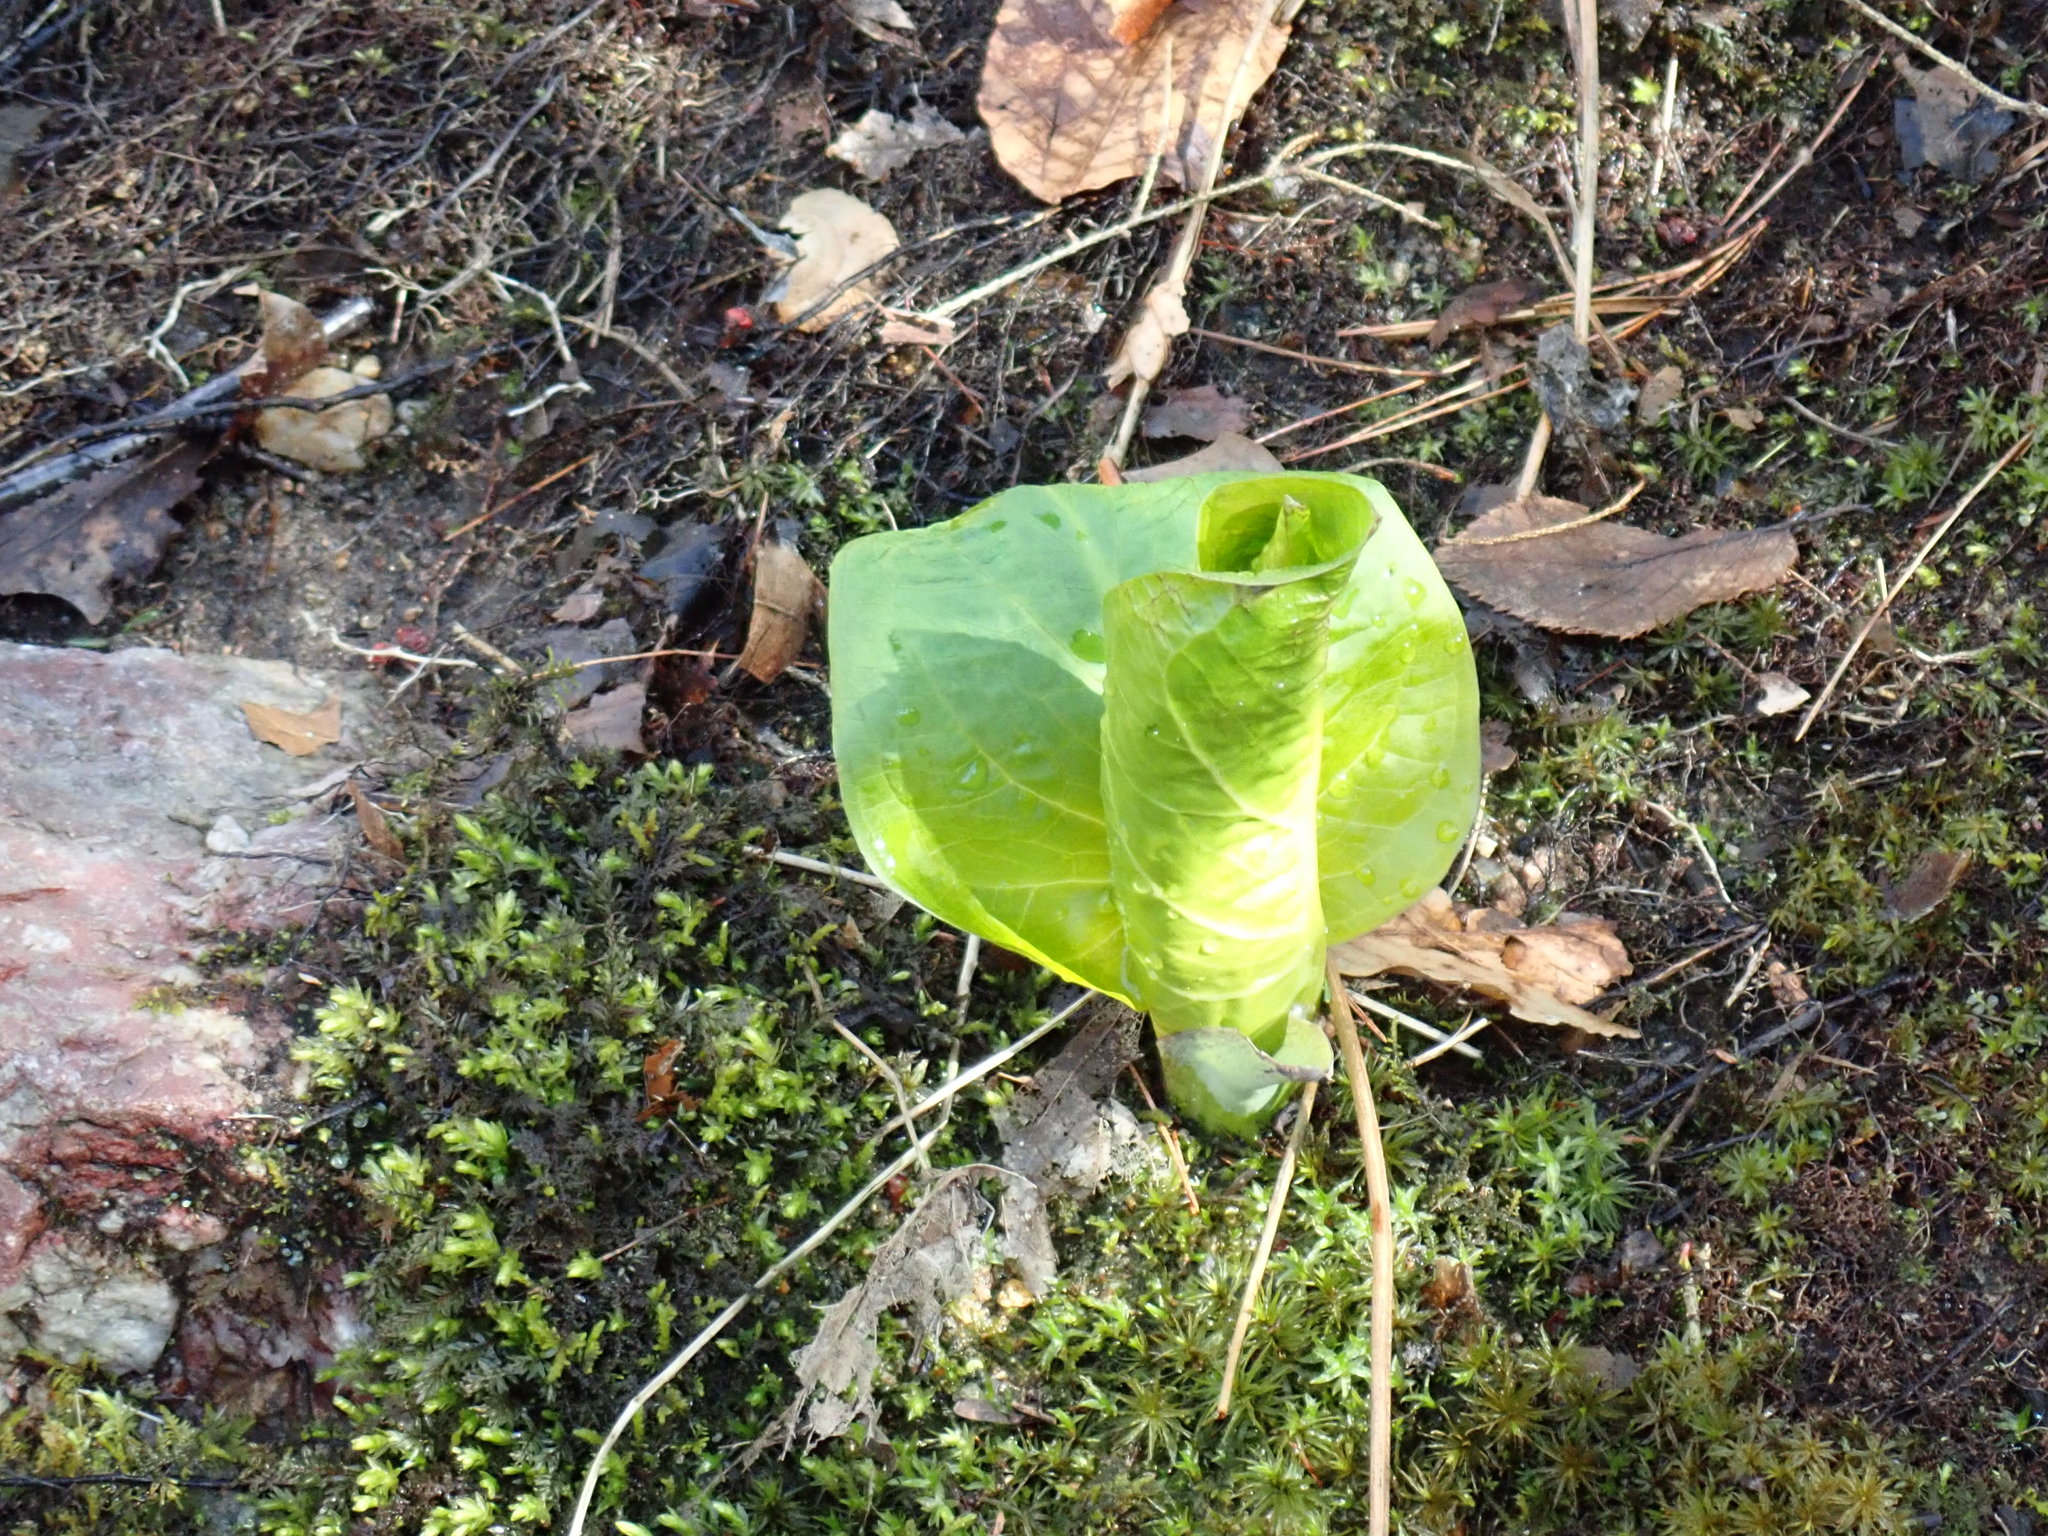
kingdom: Plantae
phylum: Tracheophyta
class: Liliopsida
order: Alismatales
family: Araceae
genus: Symplocarpus
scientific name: Symplocarpus foetidus
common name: Eastern skunk cabbage
